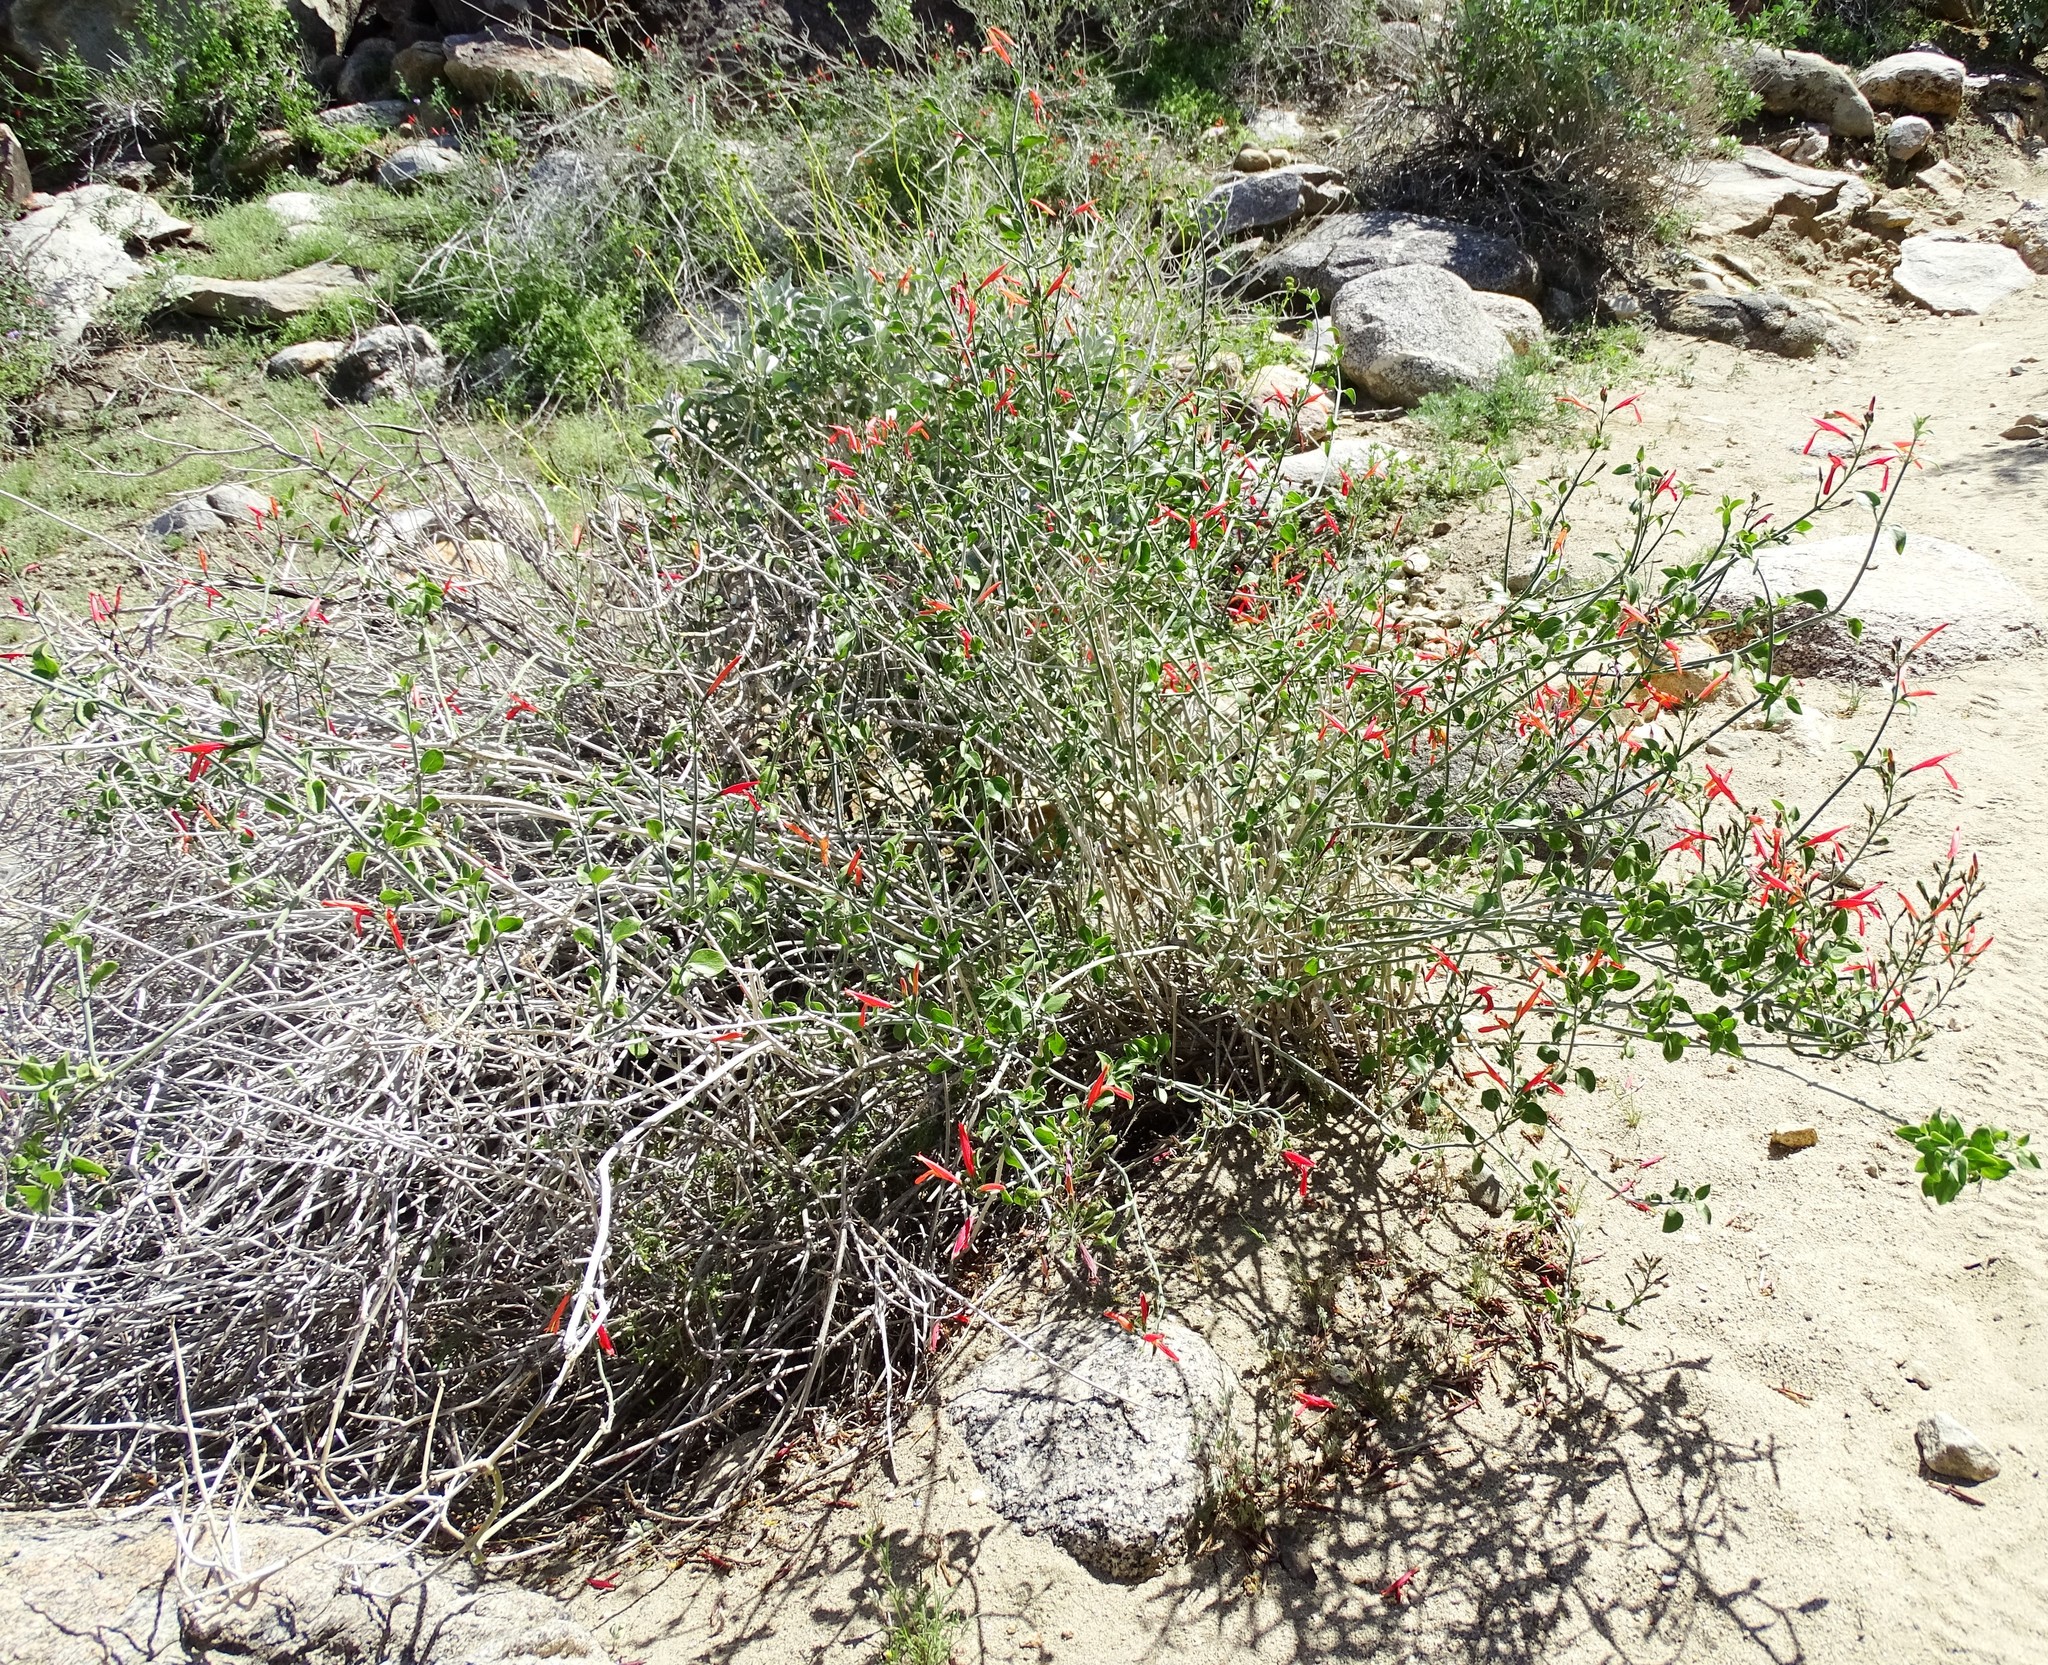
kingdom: Plantae
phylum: Tracheophyta
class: Magnoliopsida
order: Lamiales
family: Acanthaceae
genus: Justicia
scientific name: Justicia californica
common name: Chuparosa-honeysuckle
